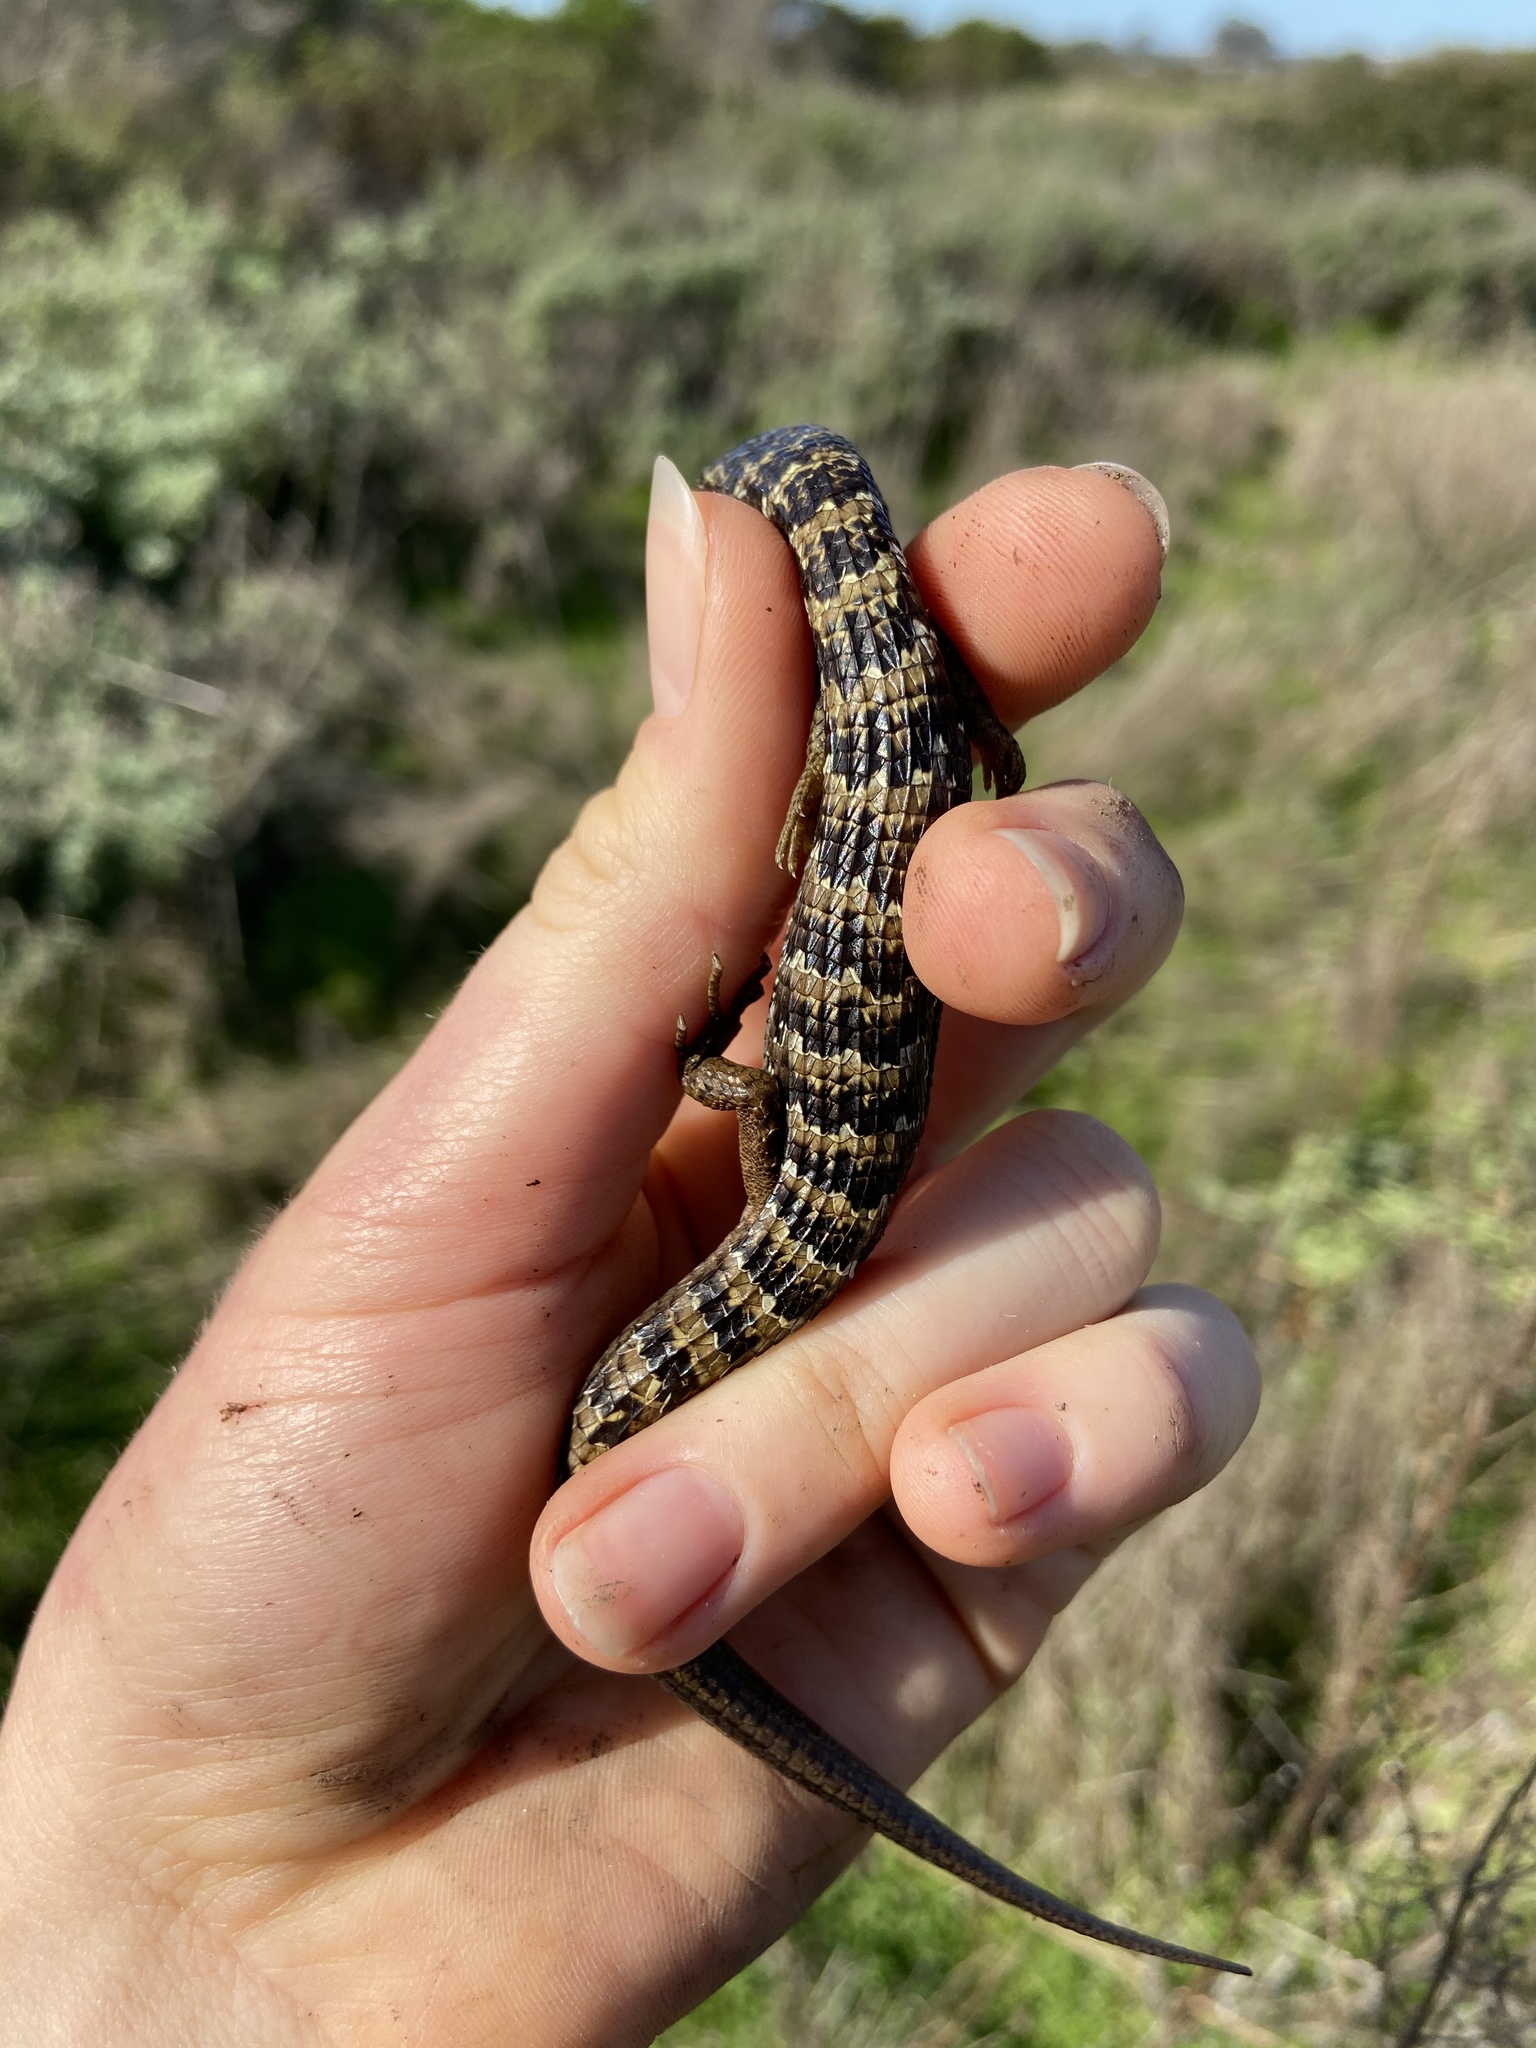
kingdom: Animalia
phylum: Chordata
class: Squamata
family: Anguidae
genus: Elgaria
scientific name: Elgaria multicarinata
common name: Southern alligator lizard
